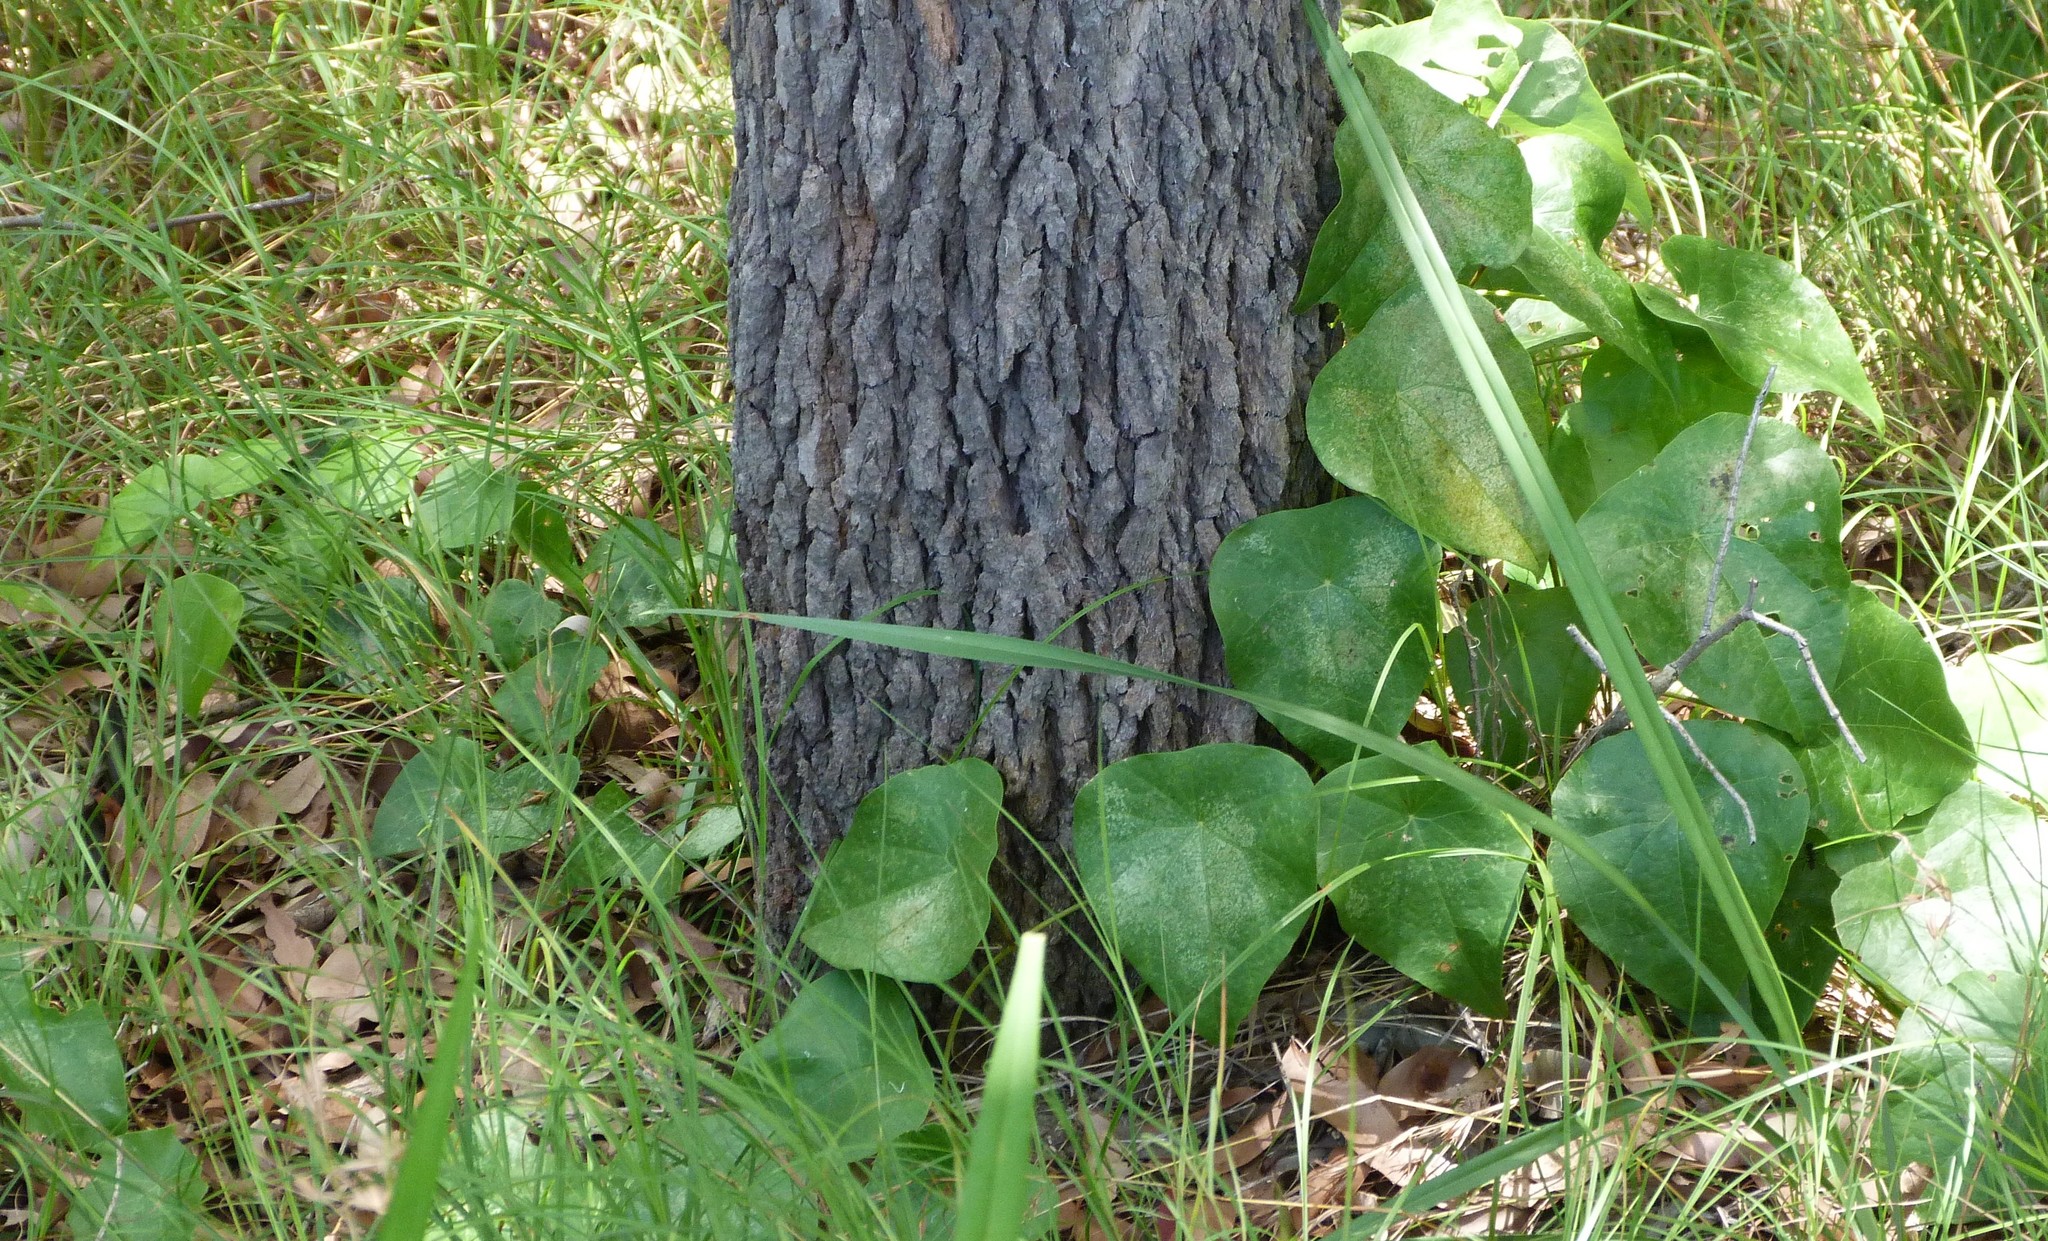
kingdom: Plantae
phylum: Tracheophyta
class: Magnoliopsida
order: Ranunculales
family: Menispermaceae
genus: Stephania
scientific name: Stephania japonica
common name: Snake vine
